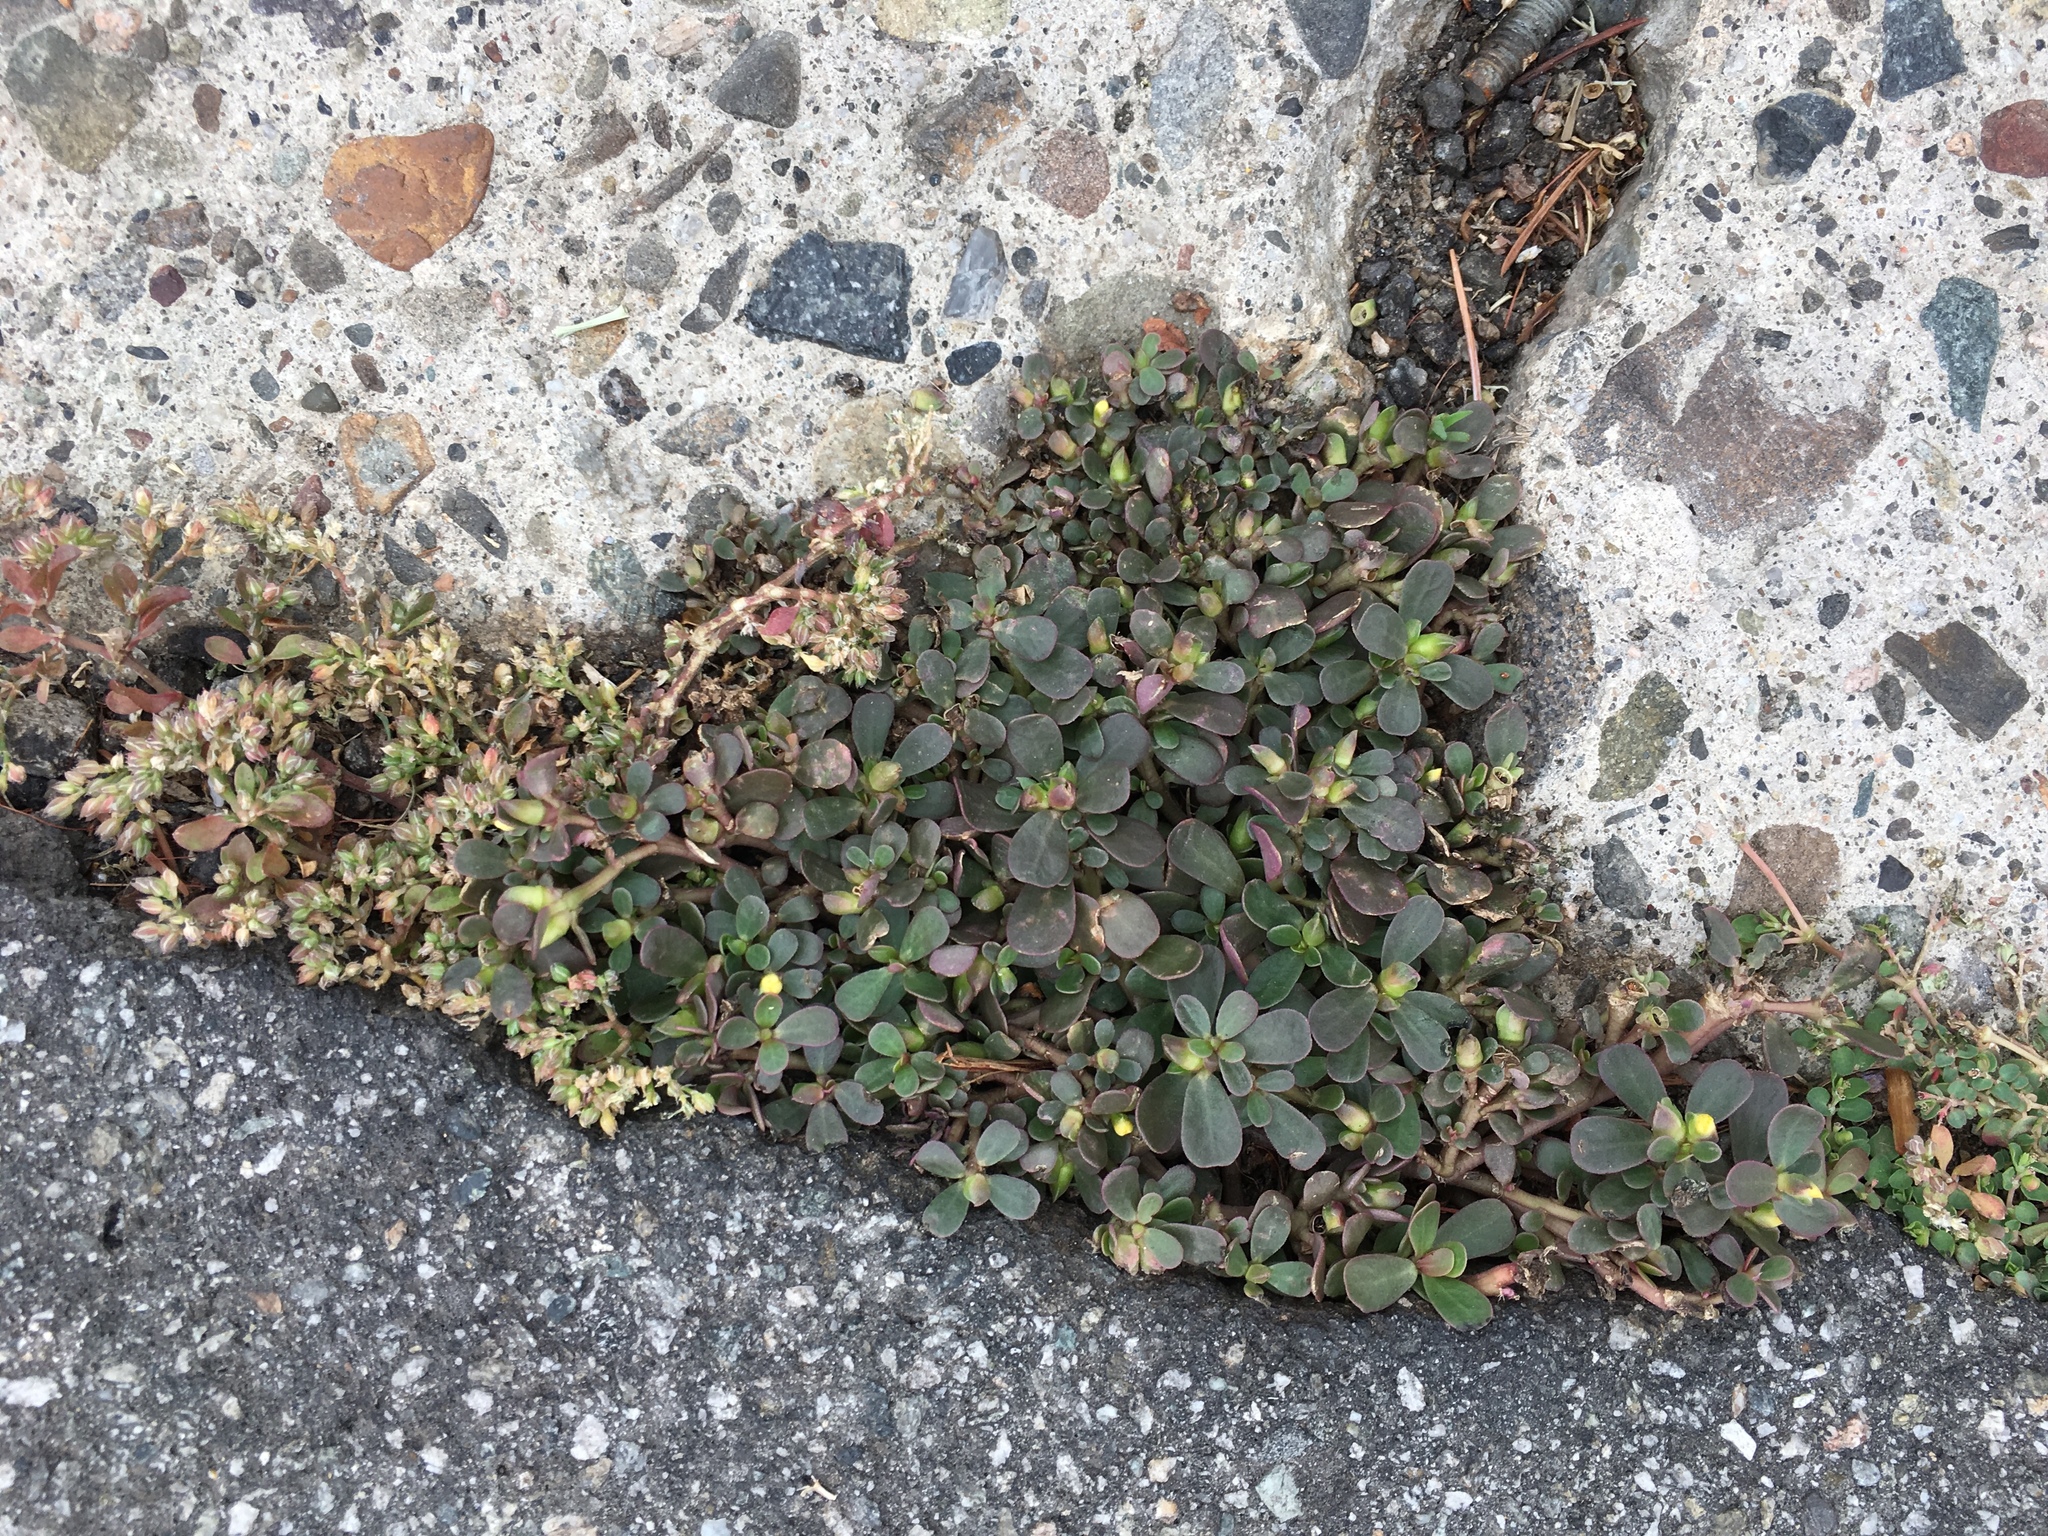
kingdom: Plantae
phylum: Tracheophyta
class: Magnoliopsida
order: Caryophyllales
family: Portulacaceae
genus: Portulaca
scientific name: Portulaca oleracea
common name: Common purslane
